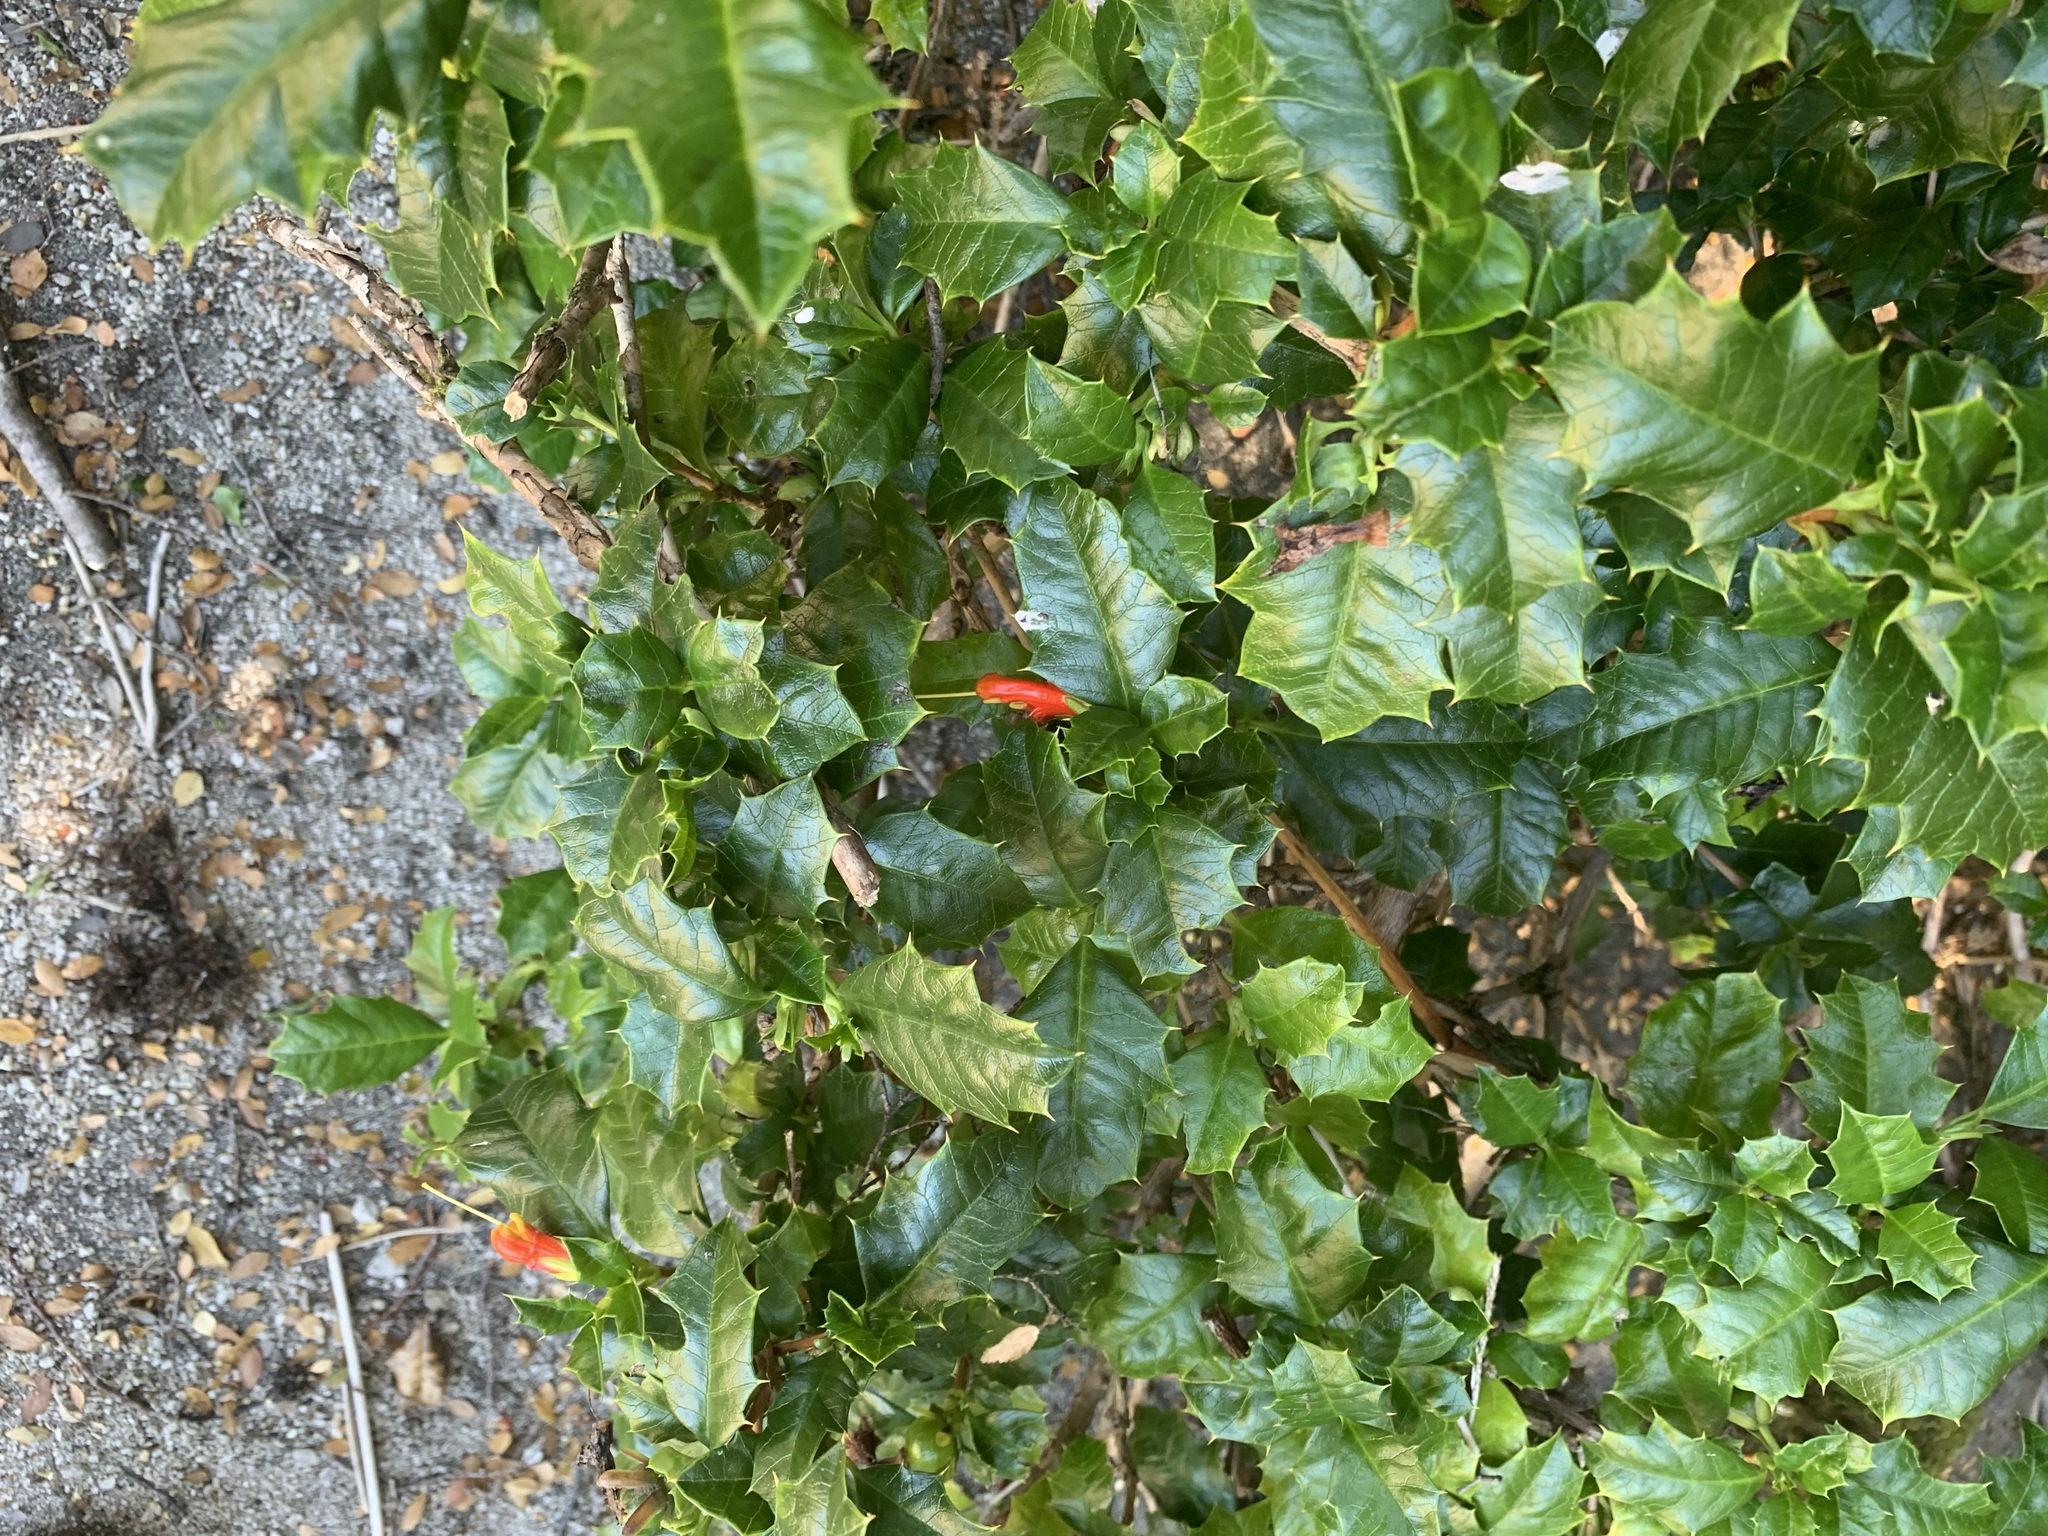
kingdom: Plantae
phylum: Tracheophyta
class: Magnoliopsida
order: Bruniales
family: Columelliaceae
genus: Desfontainia
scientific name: Desfontainia fulgens
